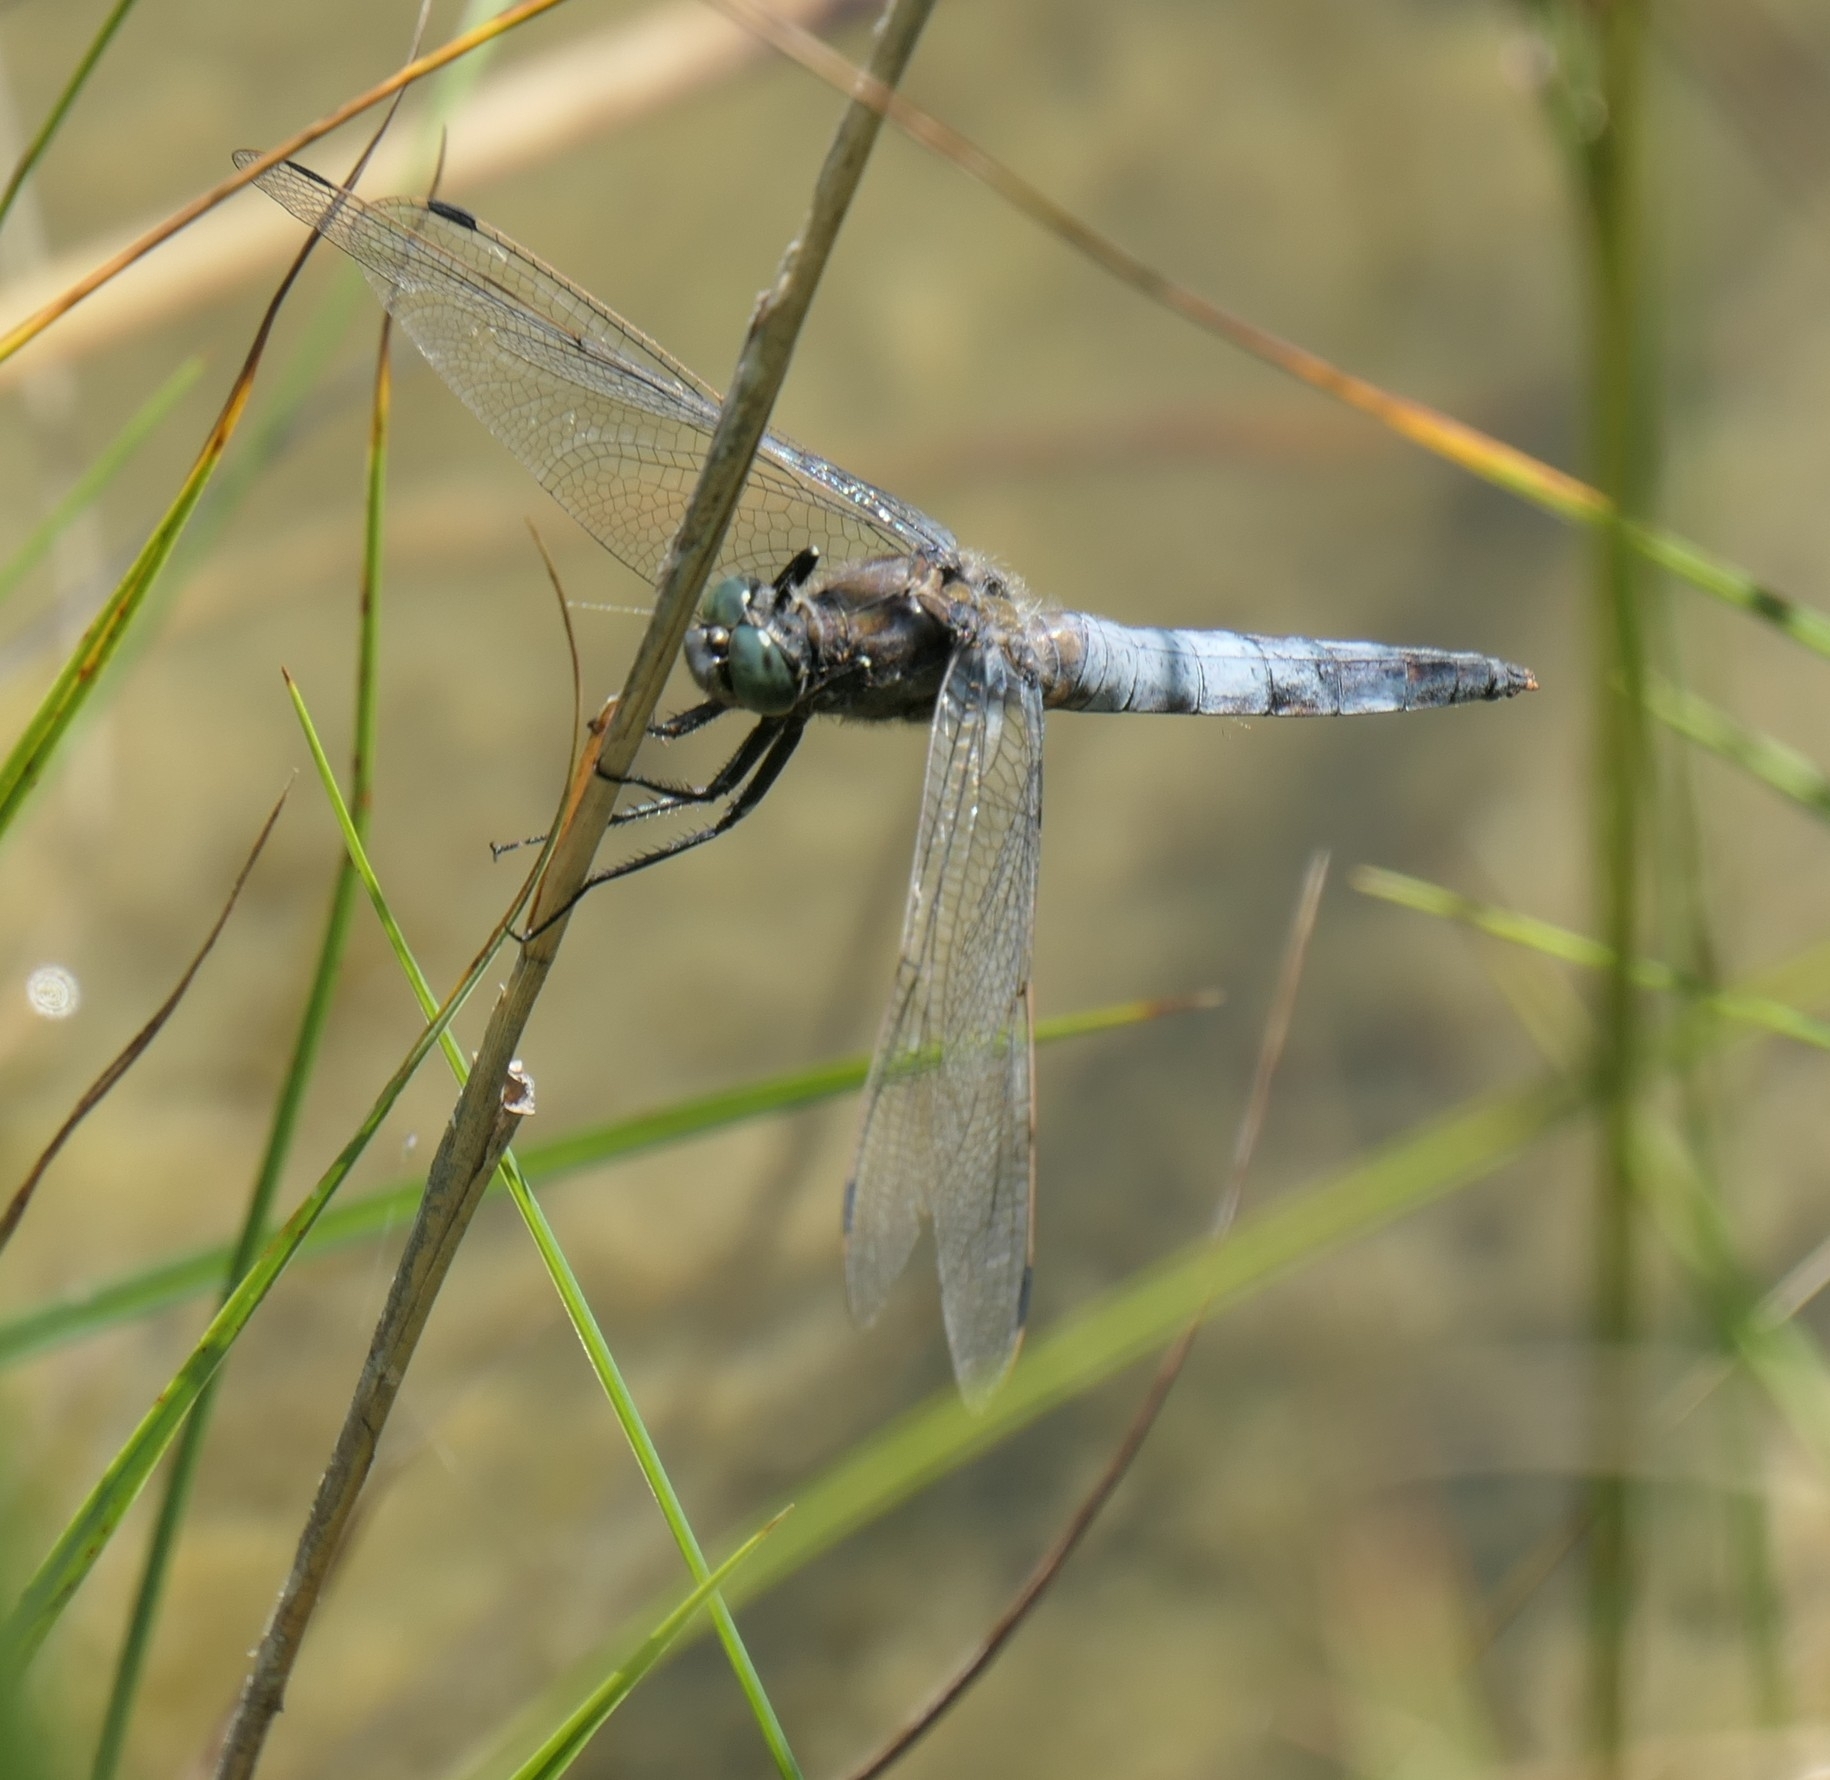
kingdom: Animalia
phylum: Arthropoda
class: Insecta
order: Odonata
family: Libellulidae
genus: Orthetrum
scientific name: Orthetrum cancellatum
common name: Black-tailed skimmer
